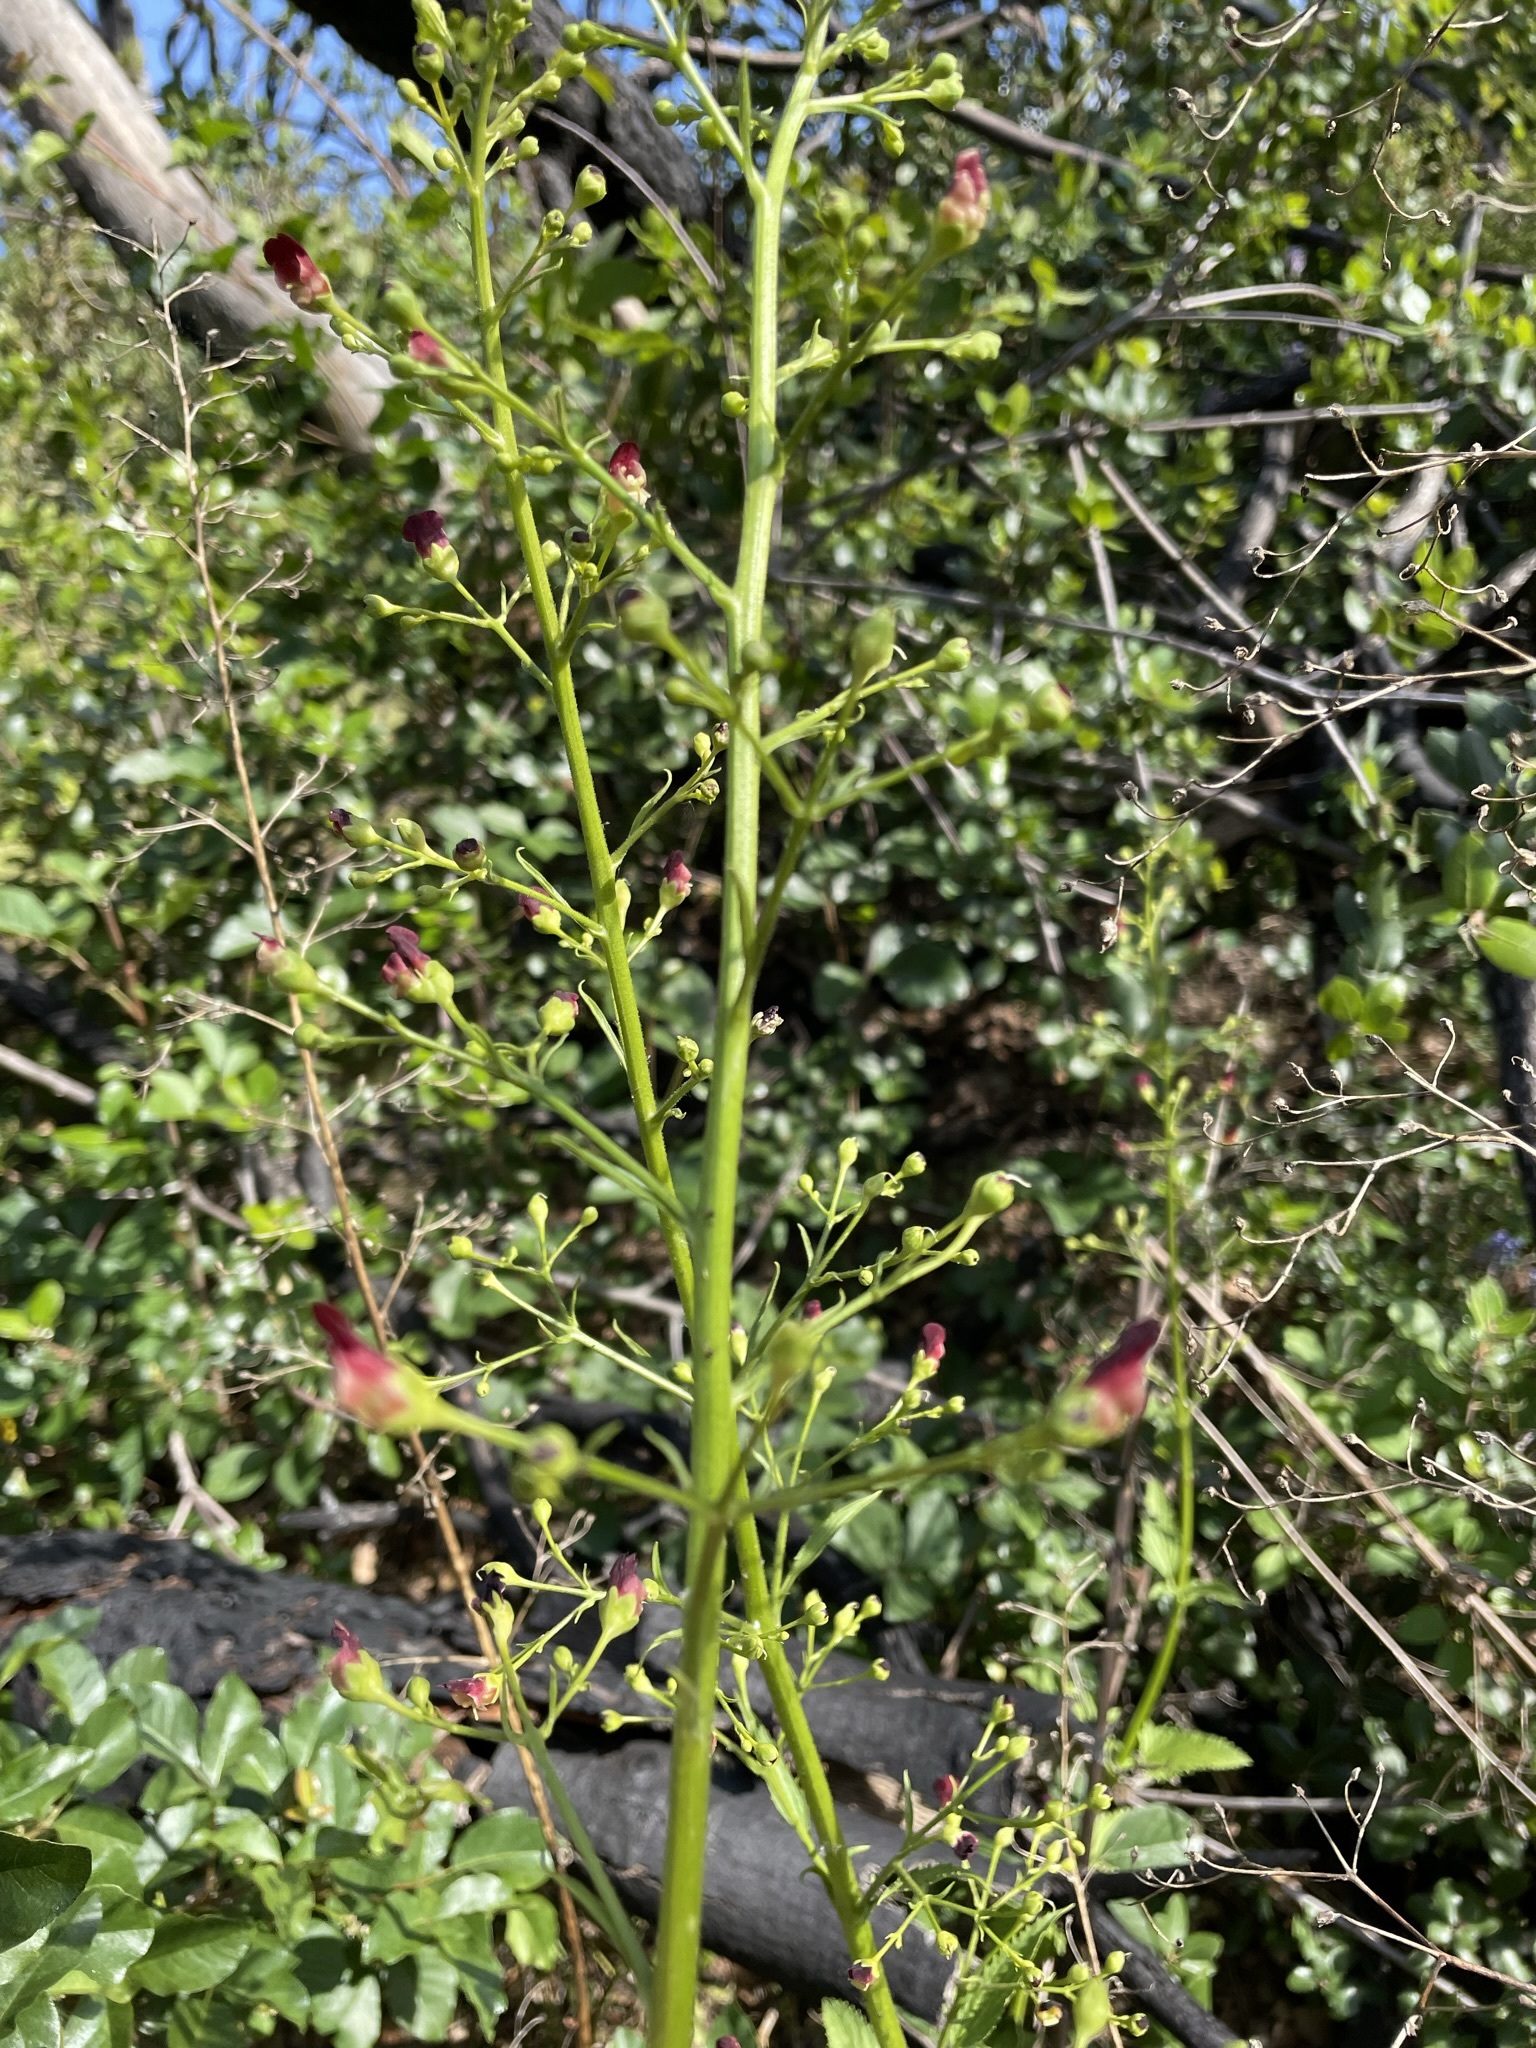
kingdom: Plantae
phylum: Tracheophyta
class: Magnoliopsida
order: Lamiales
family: Scrophulariaceae
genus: Scrophularia
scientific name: Scrophularia californica
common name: California figwort
